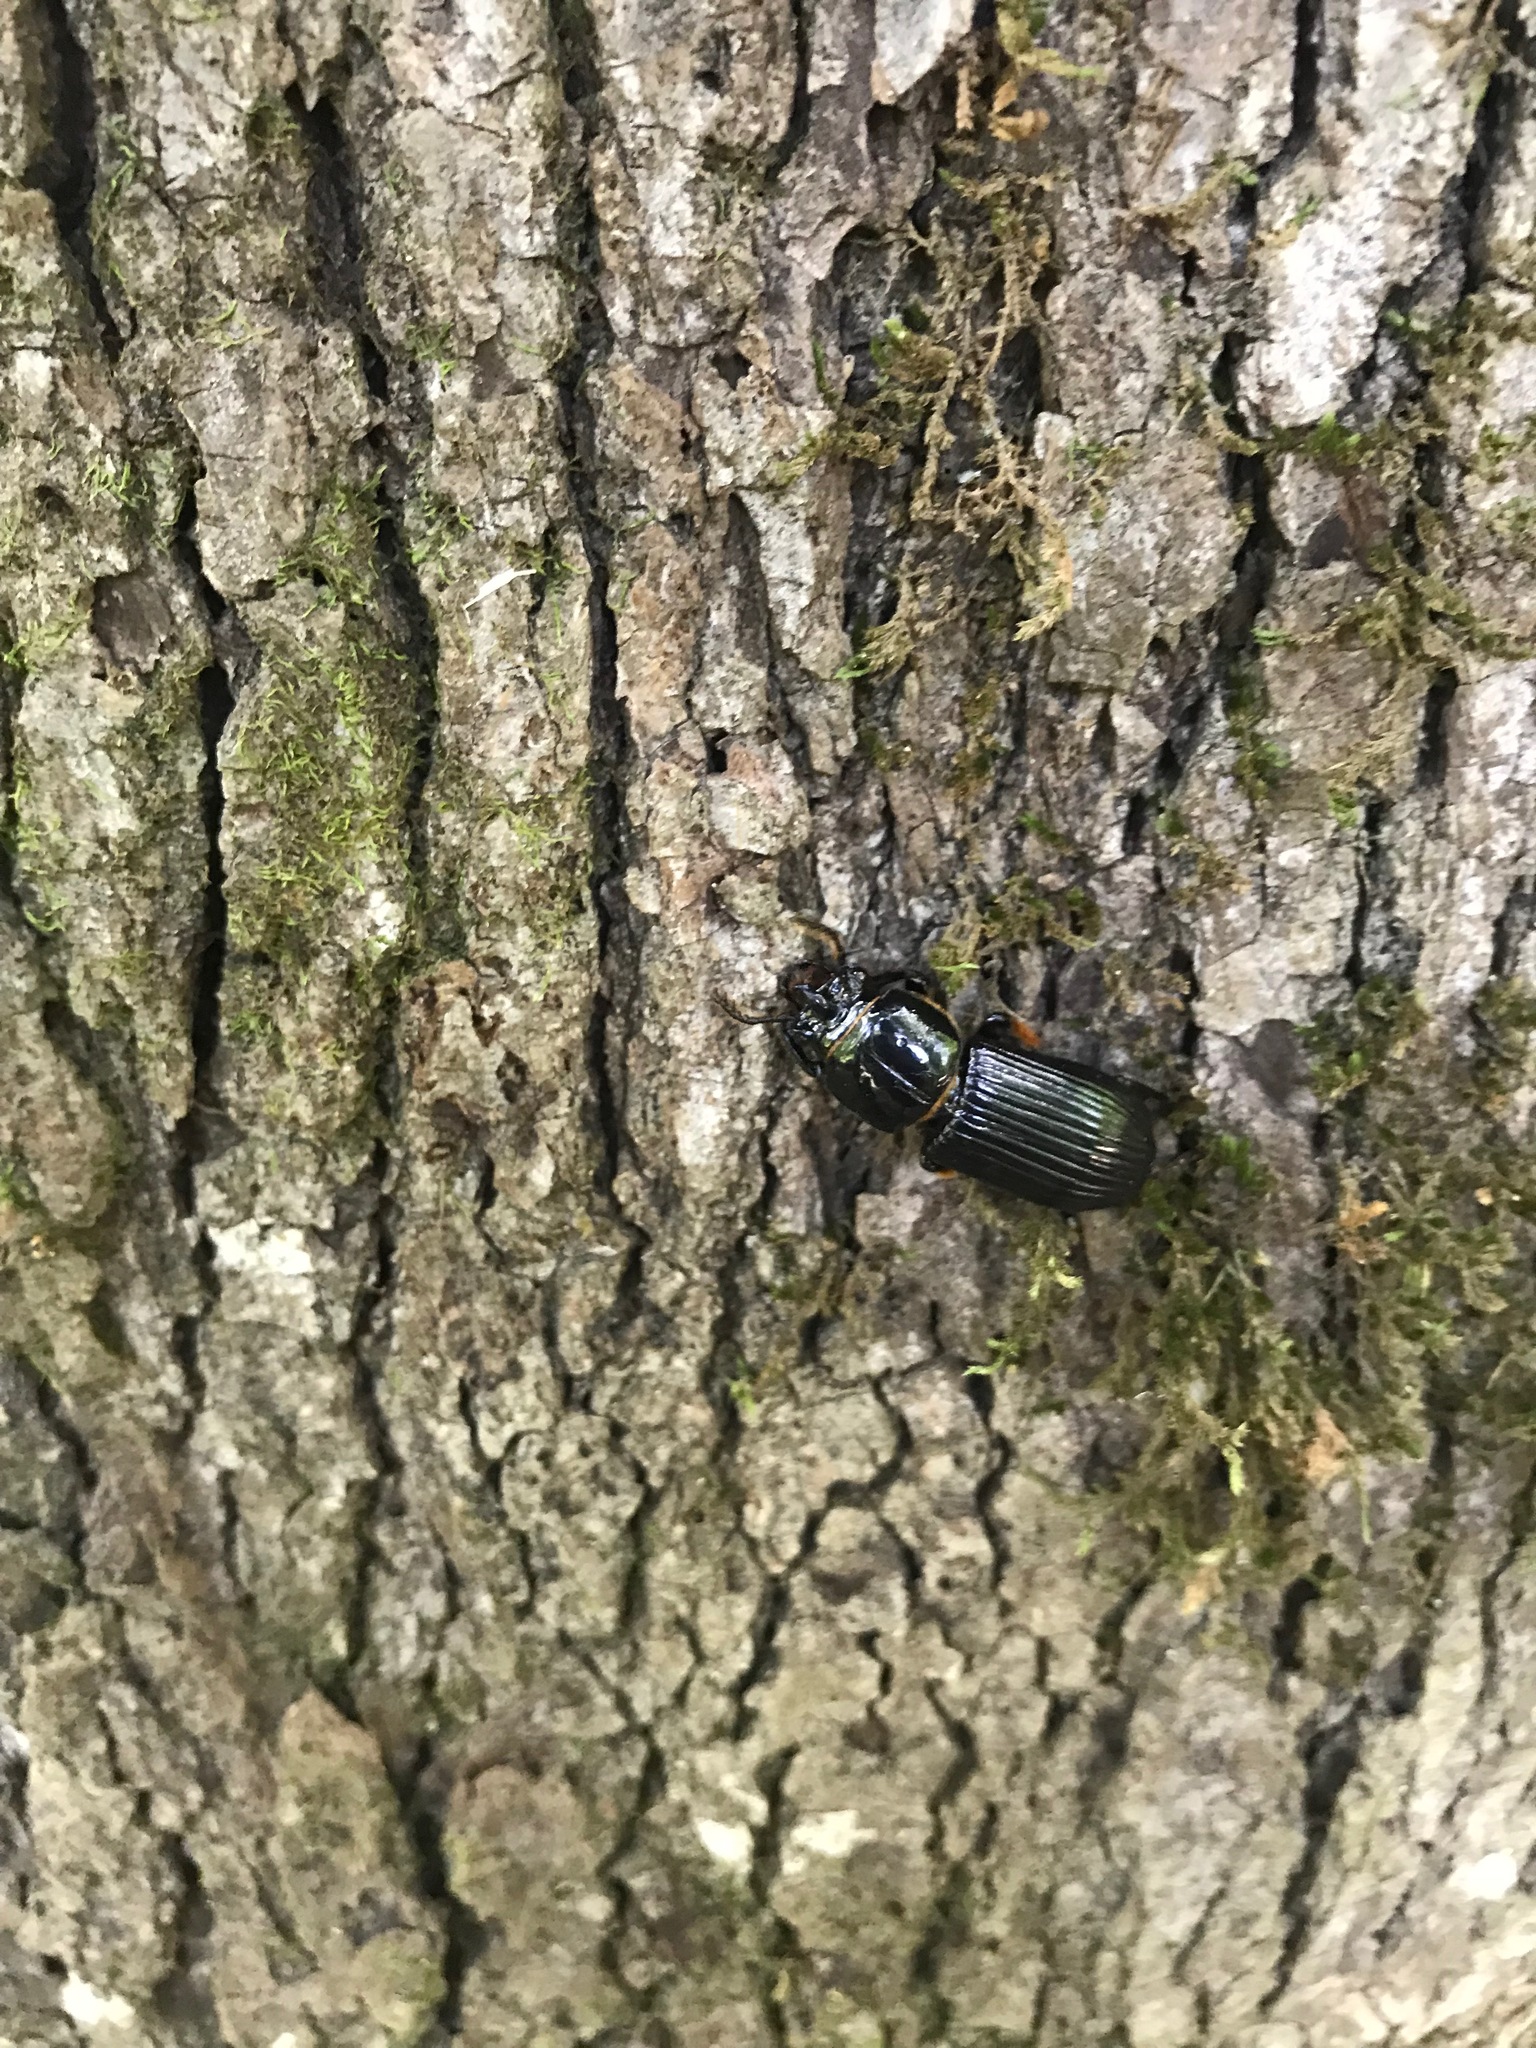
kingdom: Animalia
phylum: Arthropoda
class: Insecta
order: Coleoptera
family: Passalidae
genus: Odontotaenius
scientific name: Odontotaenius disjunctus
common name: Patent leather beetle
